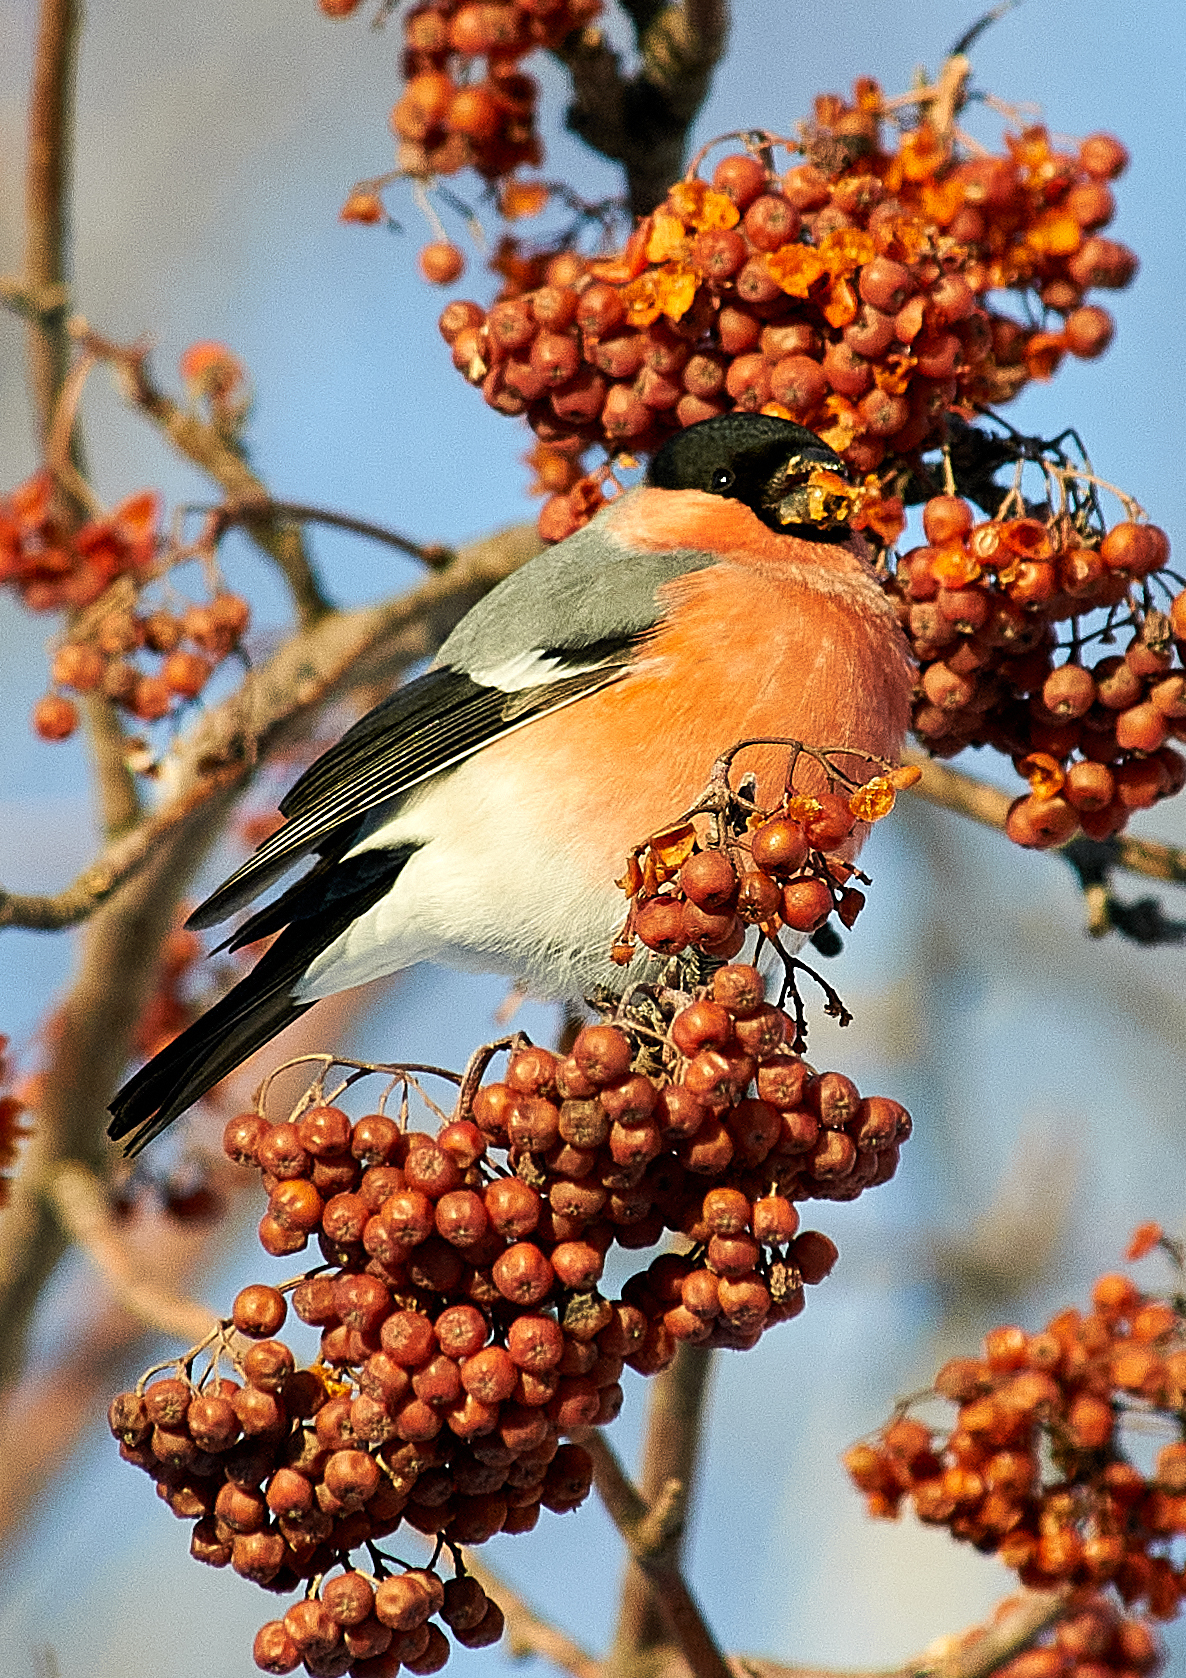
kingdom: Animalia
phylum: Chordata
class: Aves
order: Passeriformes
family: Fringillidae
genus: Pyrrhula
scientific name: Pyrrhula pyrrhula
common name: Eurasian bullfinch
